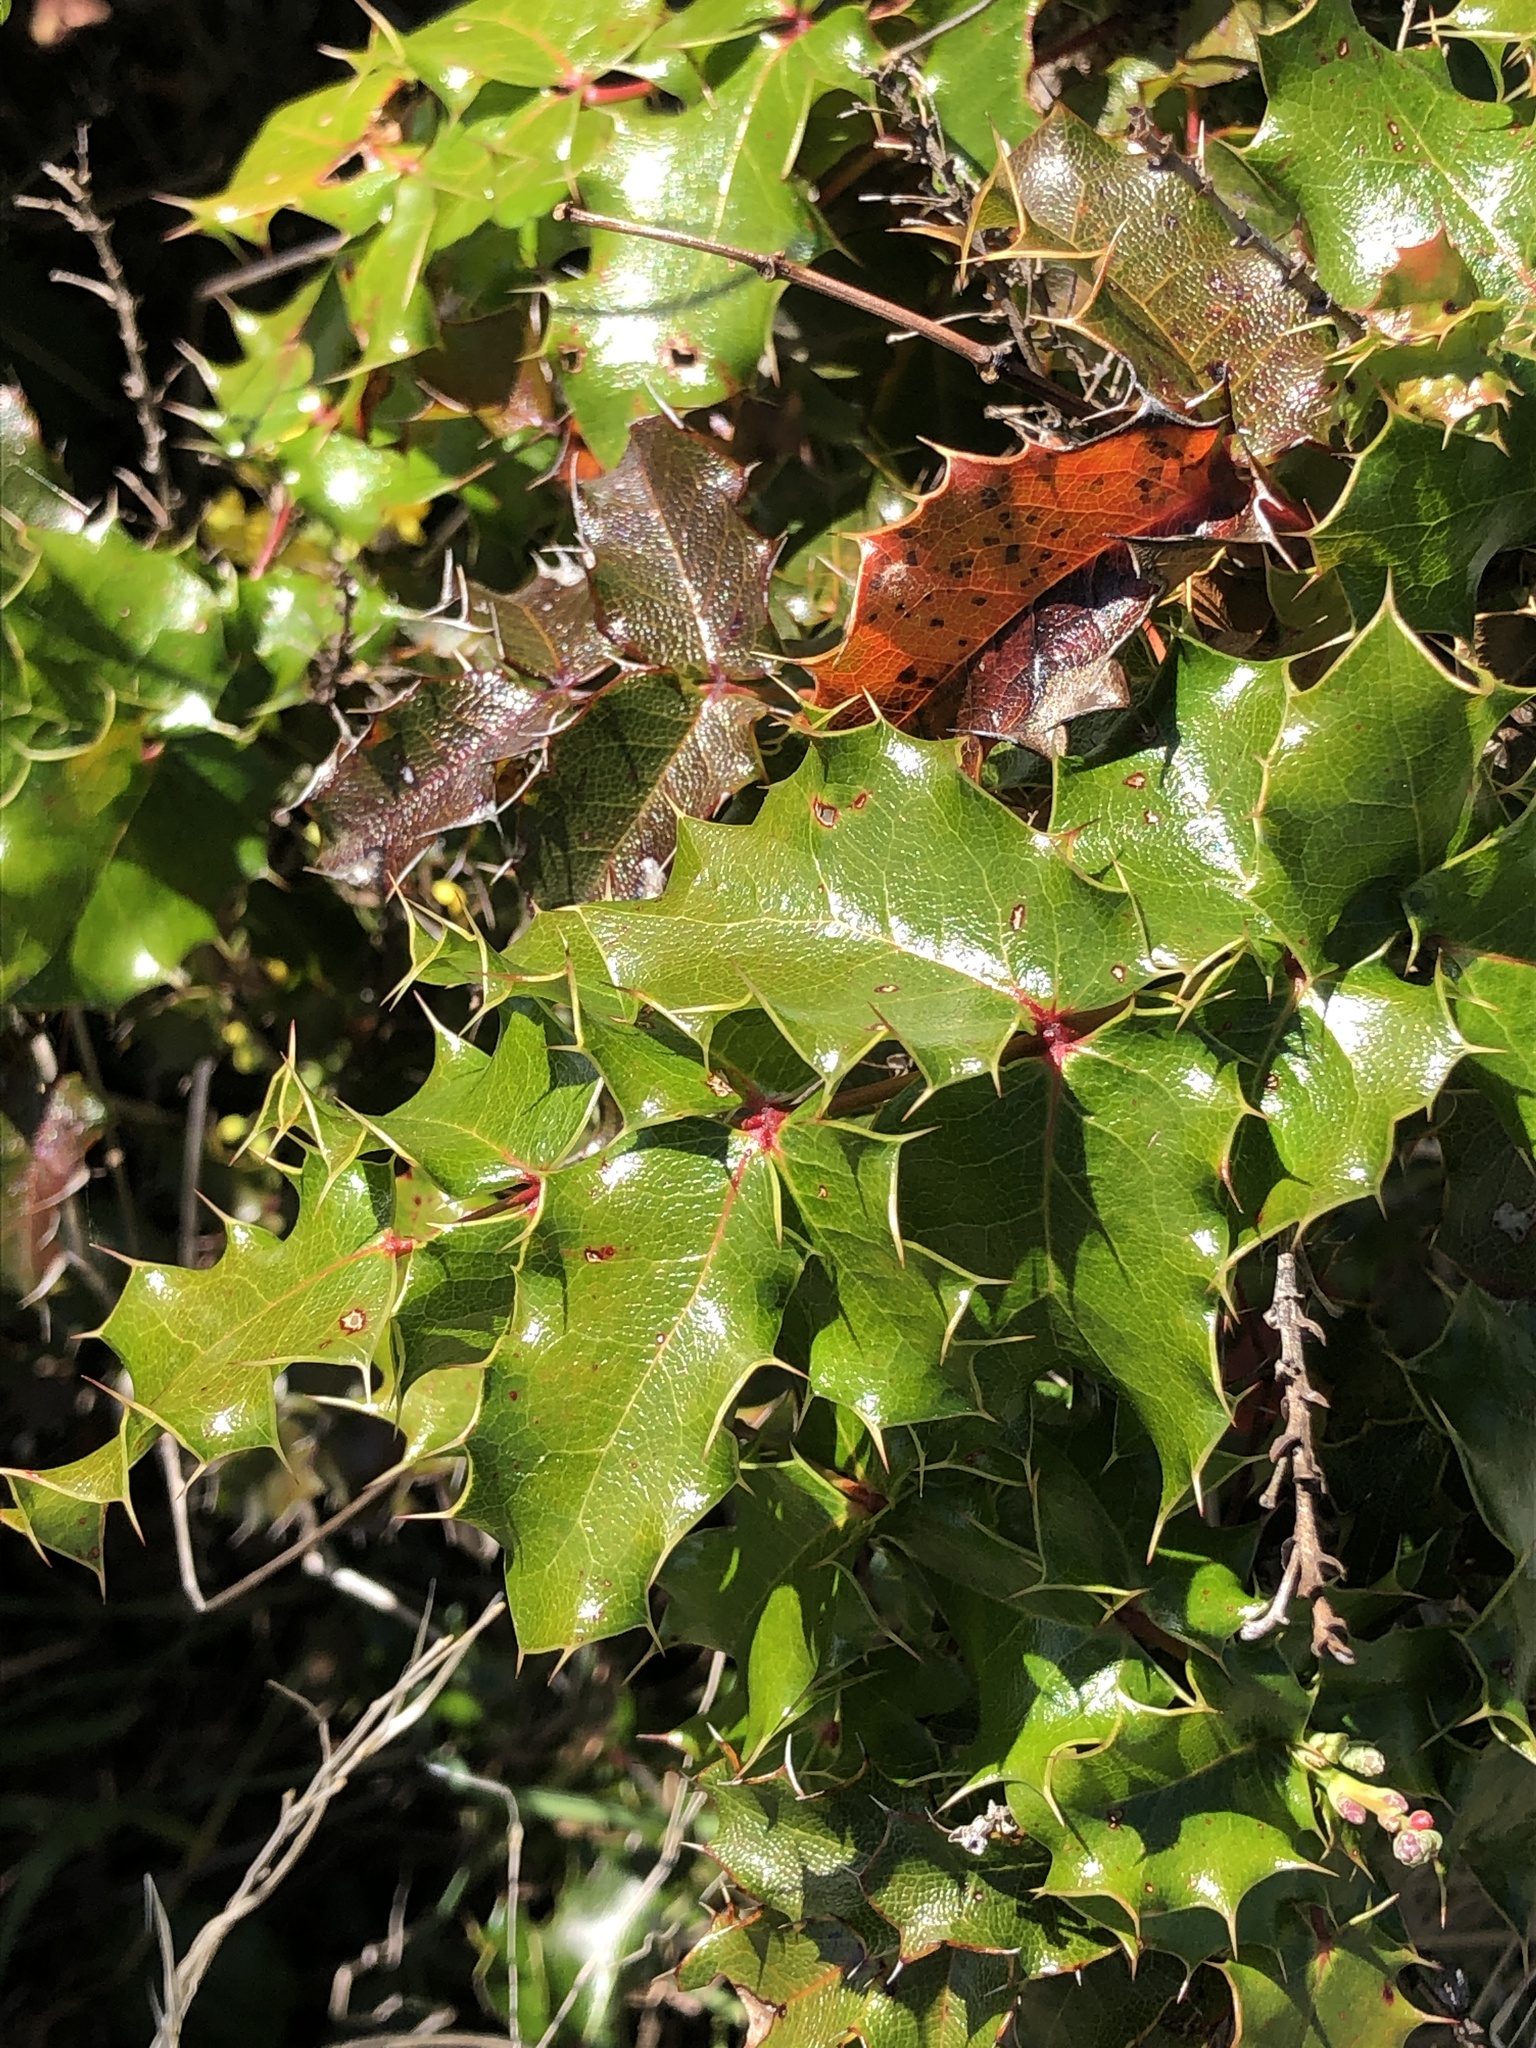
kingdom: Plantae
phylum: Tracheophyta
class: Magnoliopsida
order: Ranunculales
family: Berberidaceae
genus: Mahonia
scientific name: Mahonia
